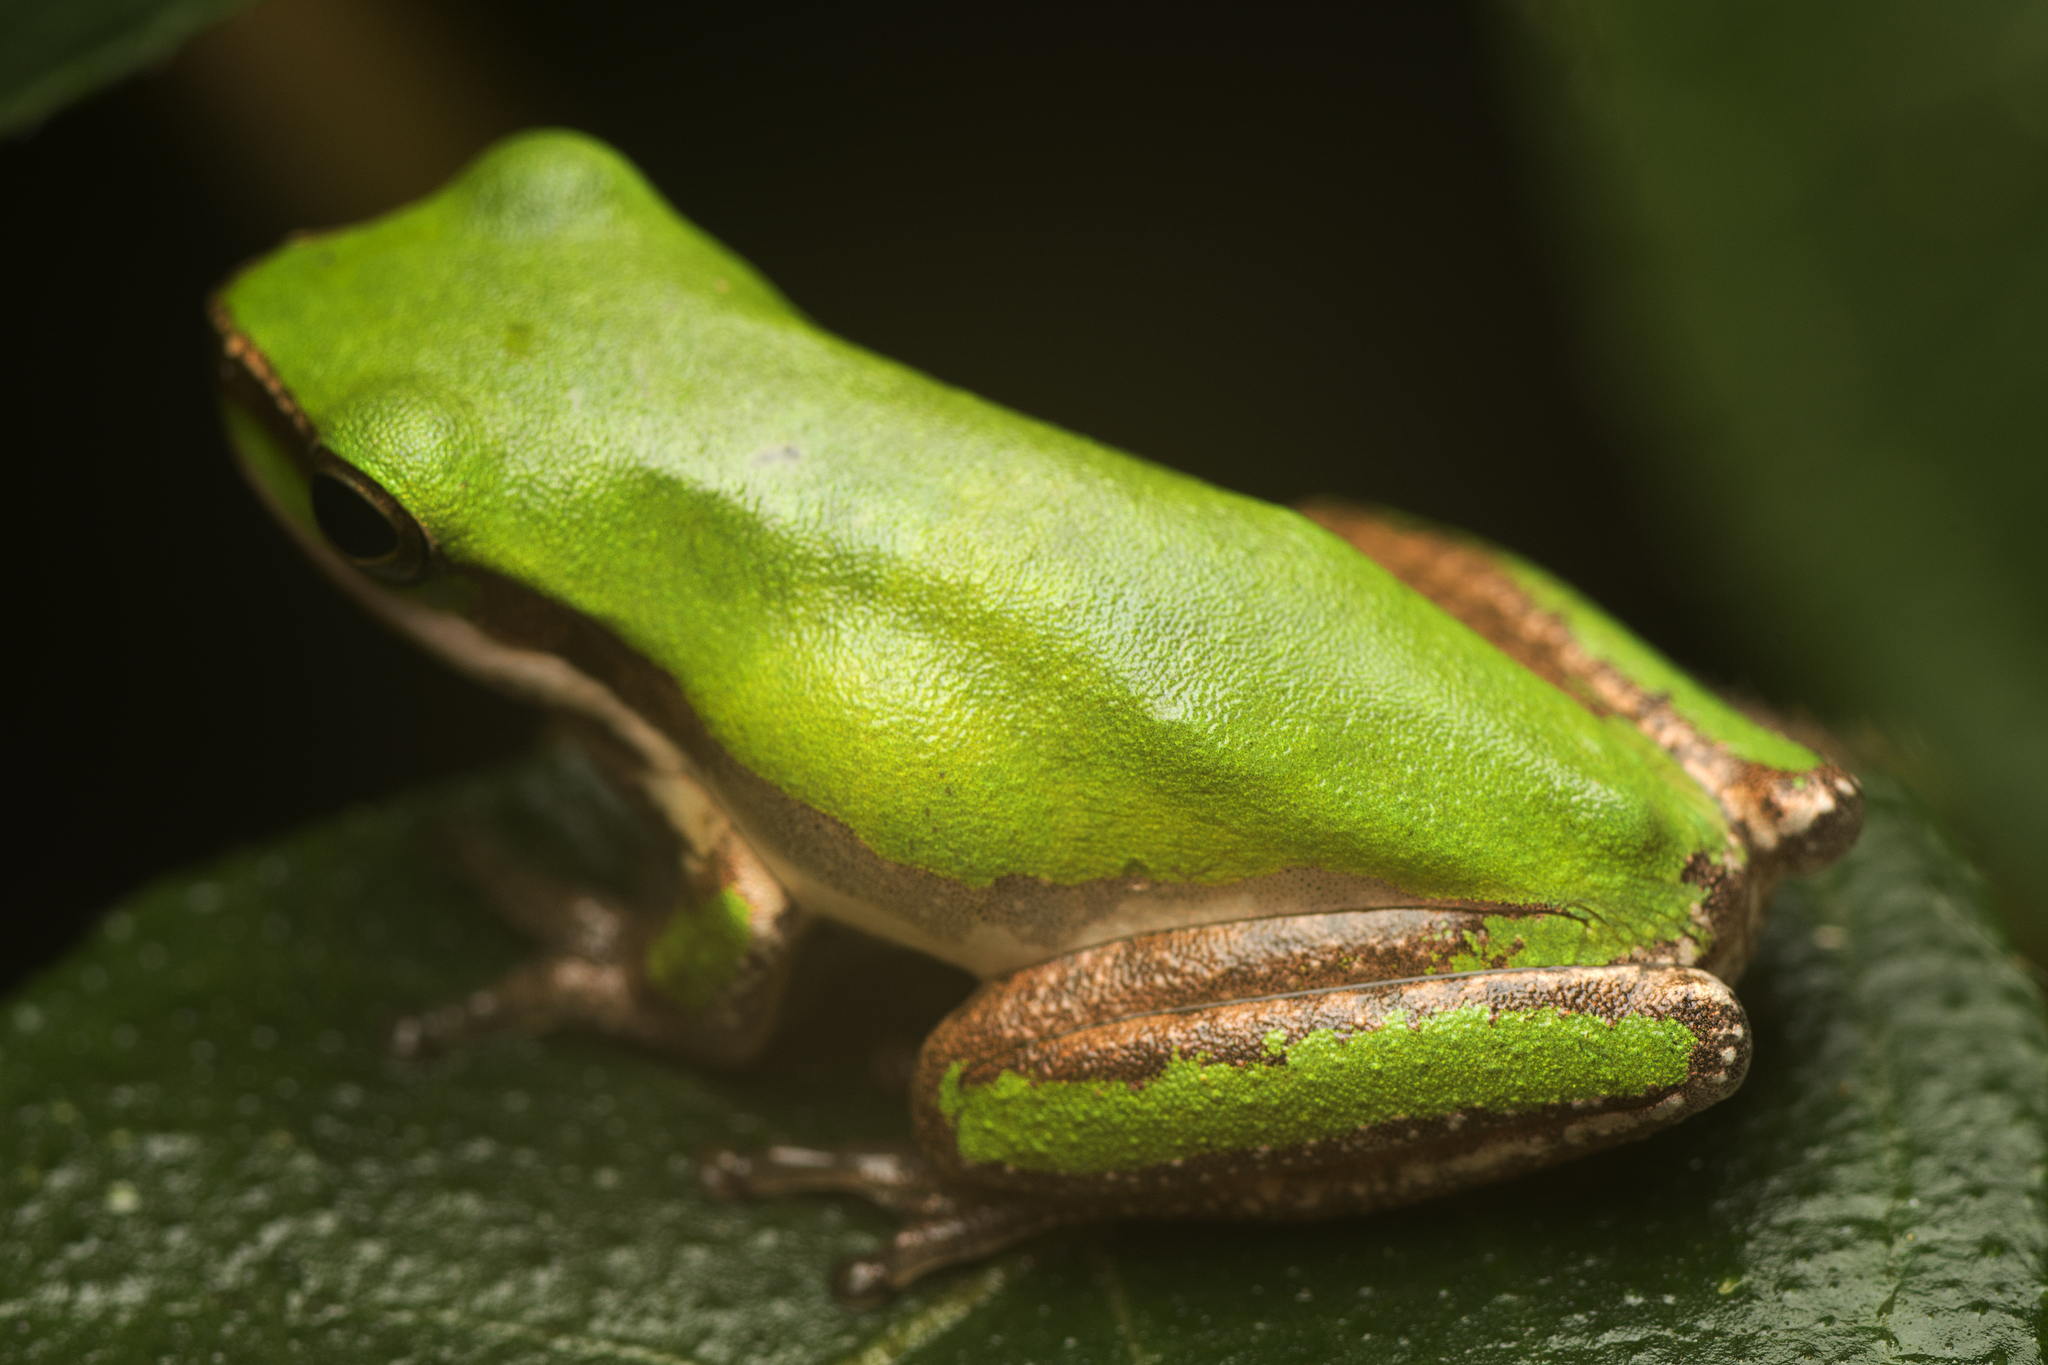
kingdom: Animalia
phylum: Chordata
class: Amphibia
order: Anura
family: Pelodryadidae
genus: Litoria
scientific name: Litoria fallax
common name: Eastern dwarf treefrog
